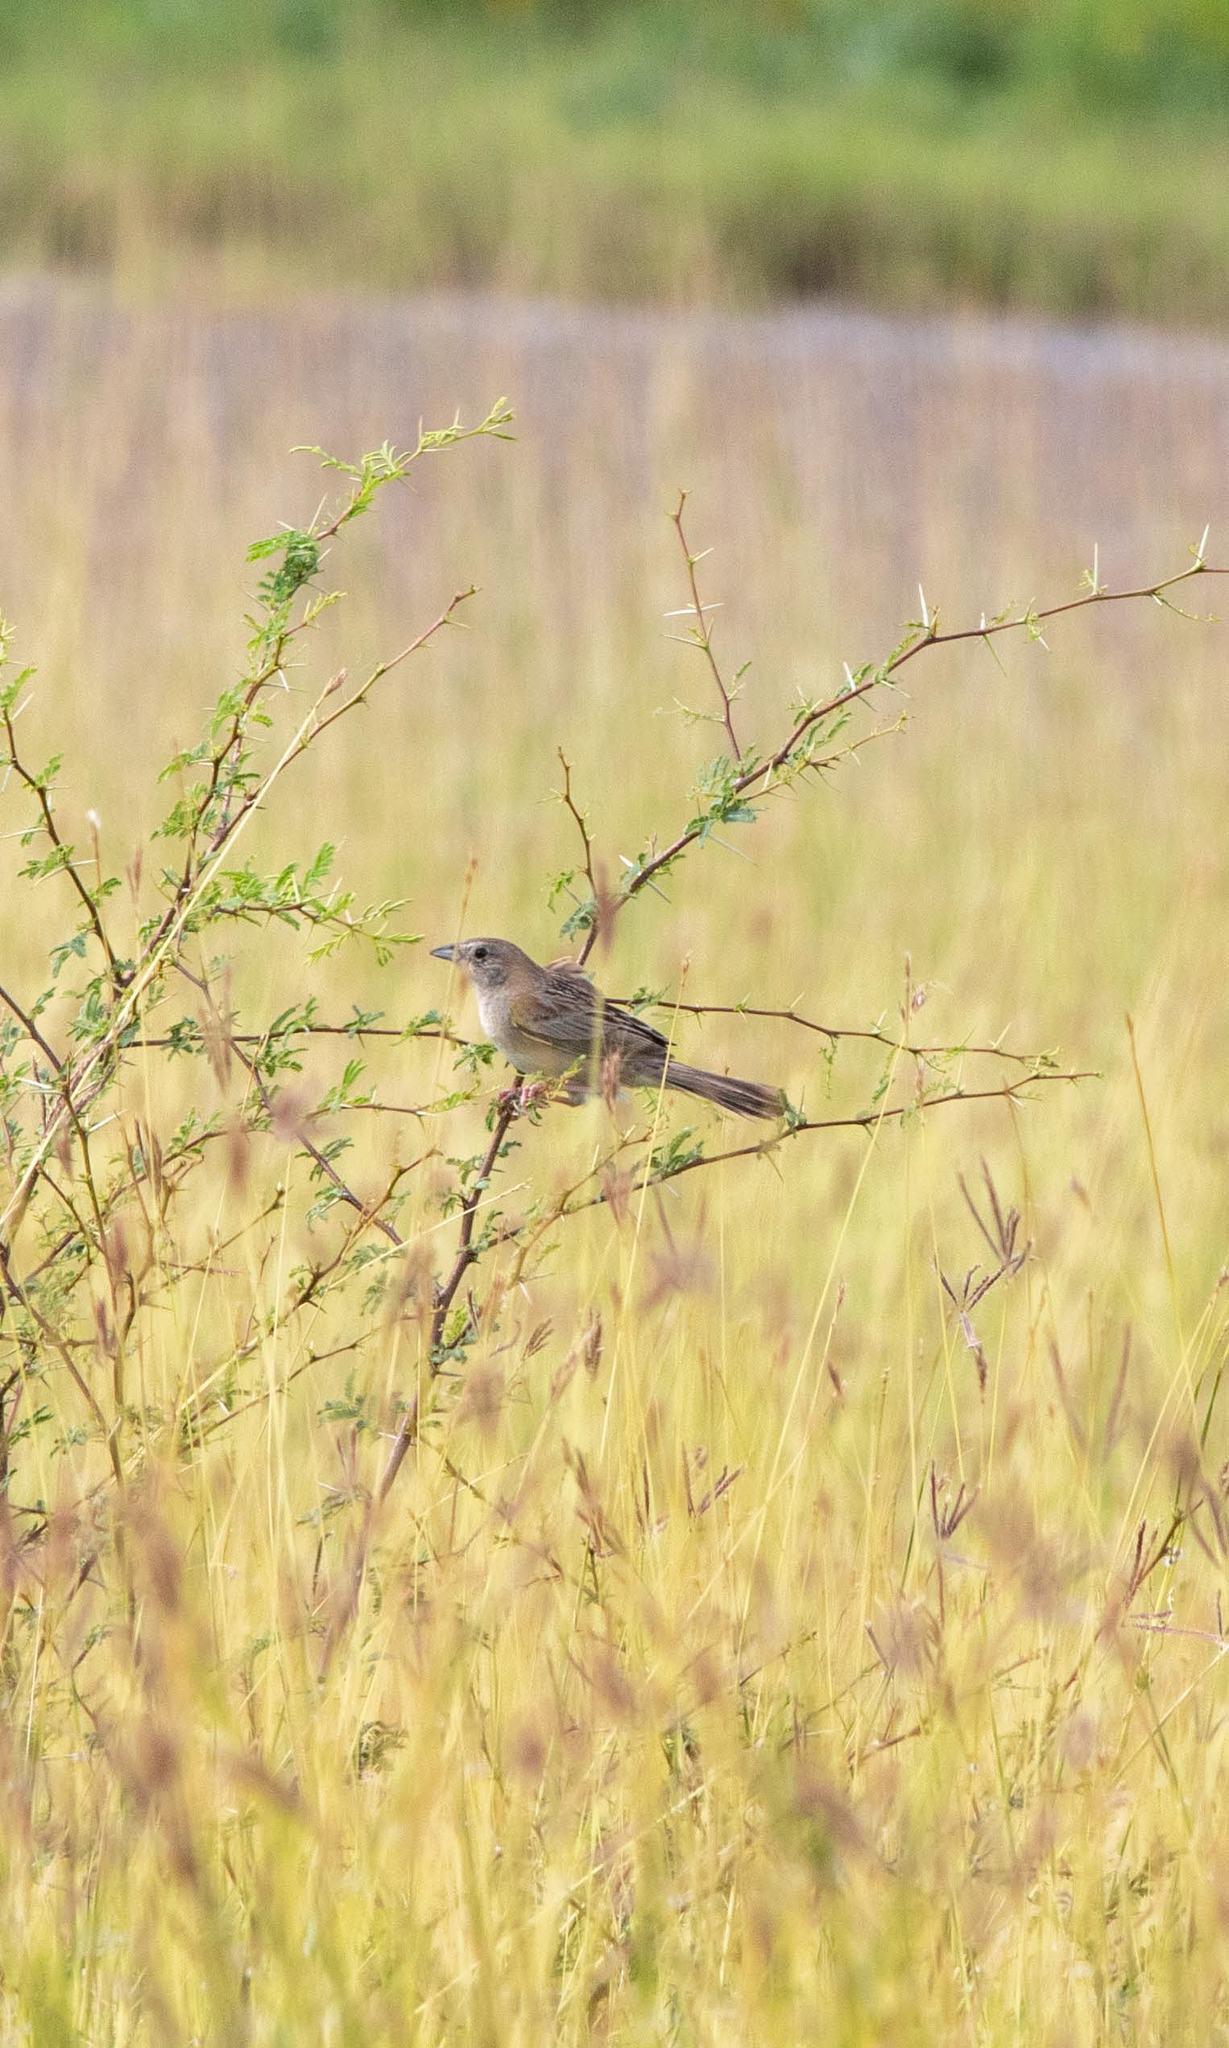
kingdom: Animalia
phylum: Chordata
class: Aves
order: Passeriformes
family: Passerellidae
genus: Peucaea
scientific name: Peucaea botterii
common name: Botteri's sparrow
